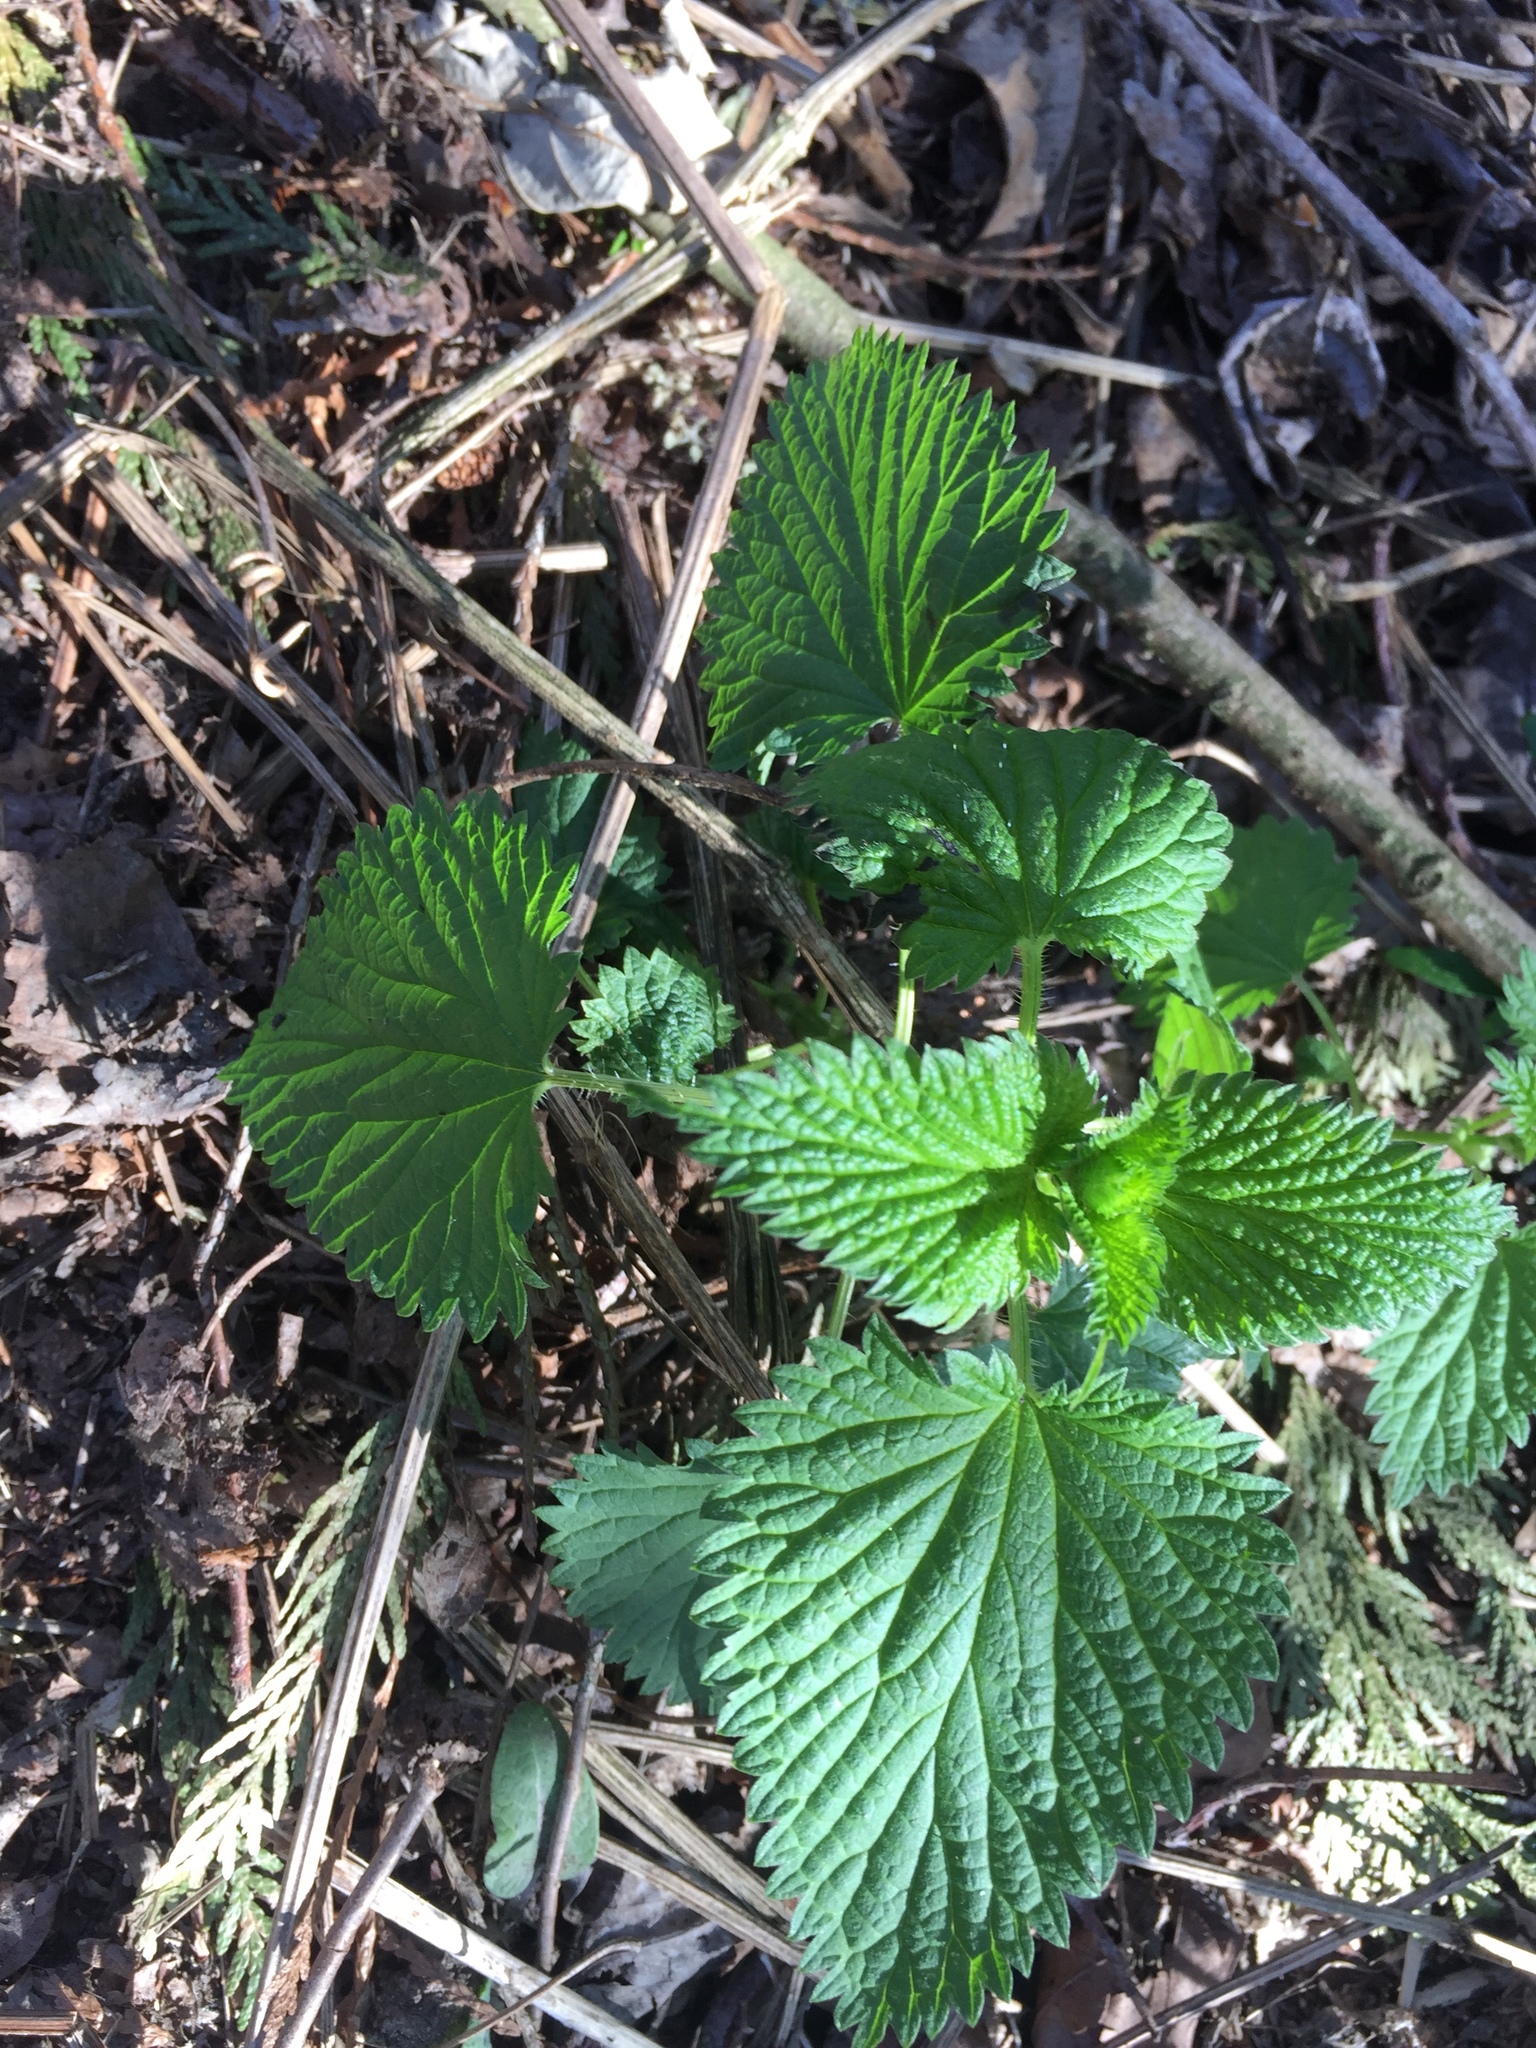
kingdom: Plantae
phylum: Tracheophyta
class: Magnoliopsida
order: Rosales
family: Urticaceae
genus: Urtica
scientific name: Urtica dioica
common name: Common nettle
